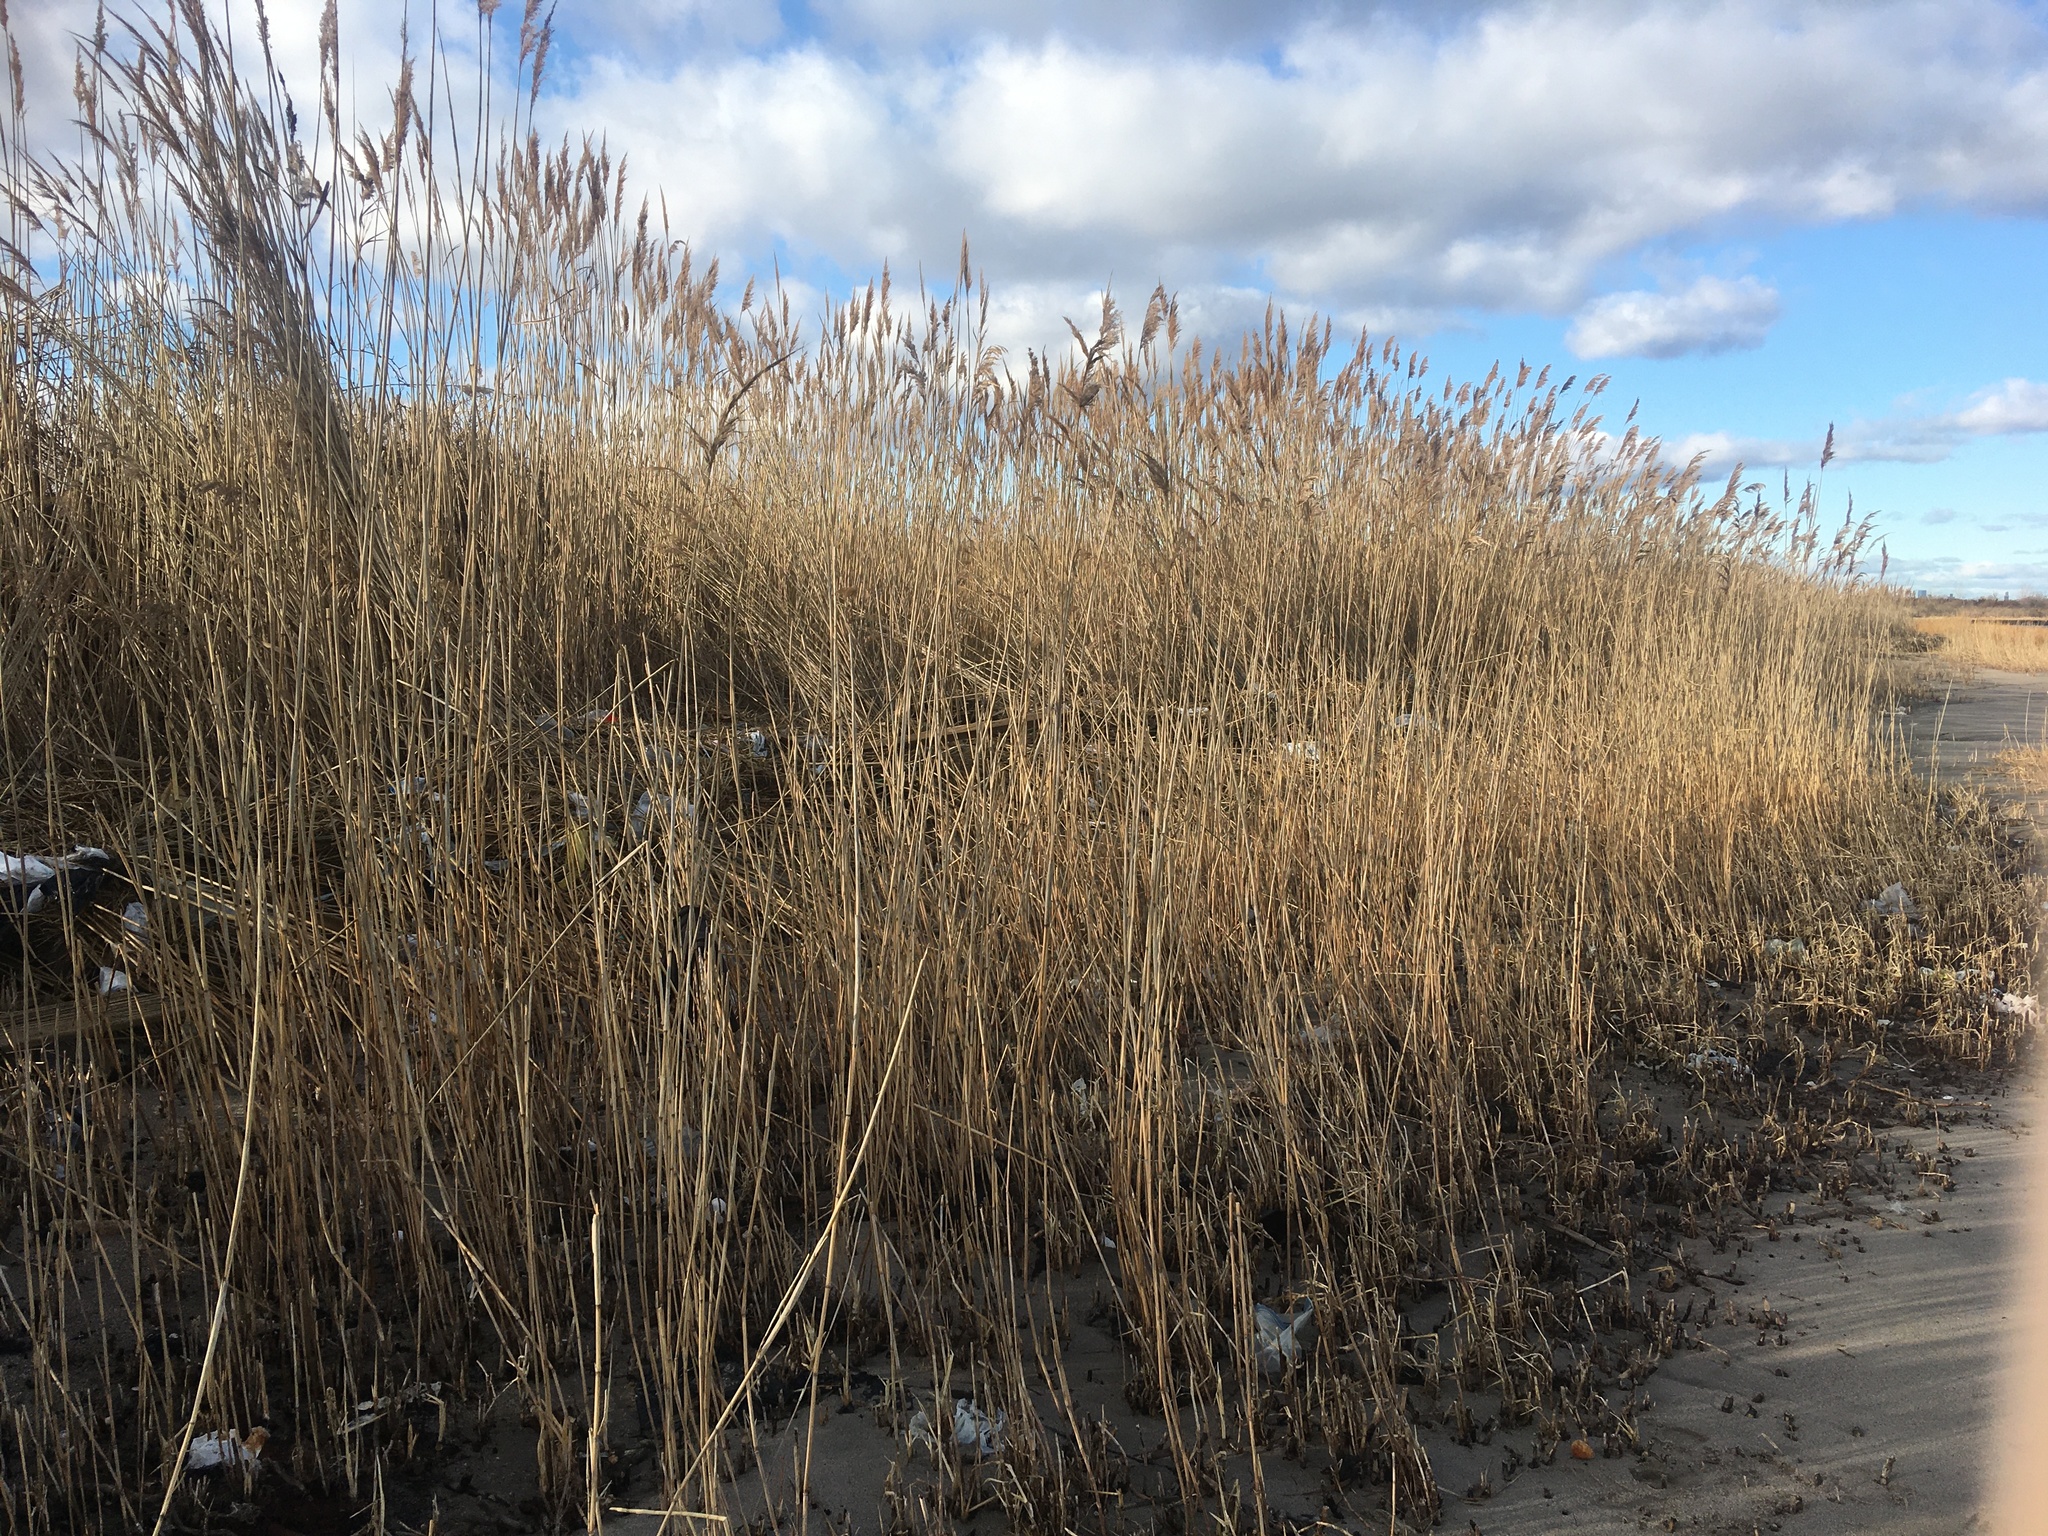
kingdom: Plantae
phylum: Tracheophyta
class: Liliopsida
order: Poales
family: Poaceae
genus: Phragmites
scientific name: Phragmites australis
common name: Common reed
